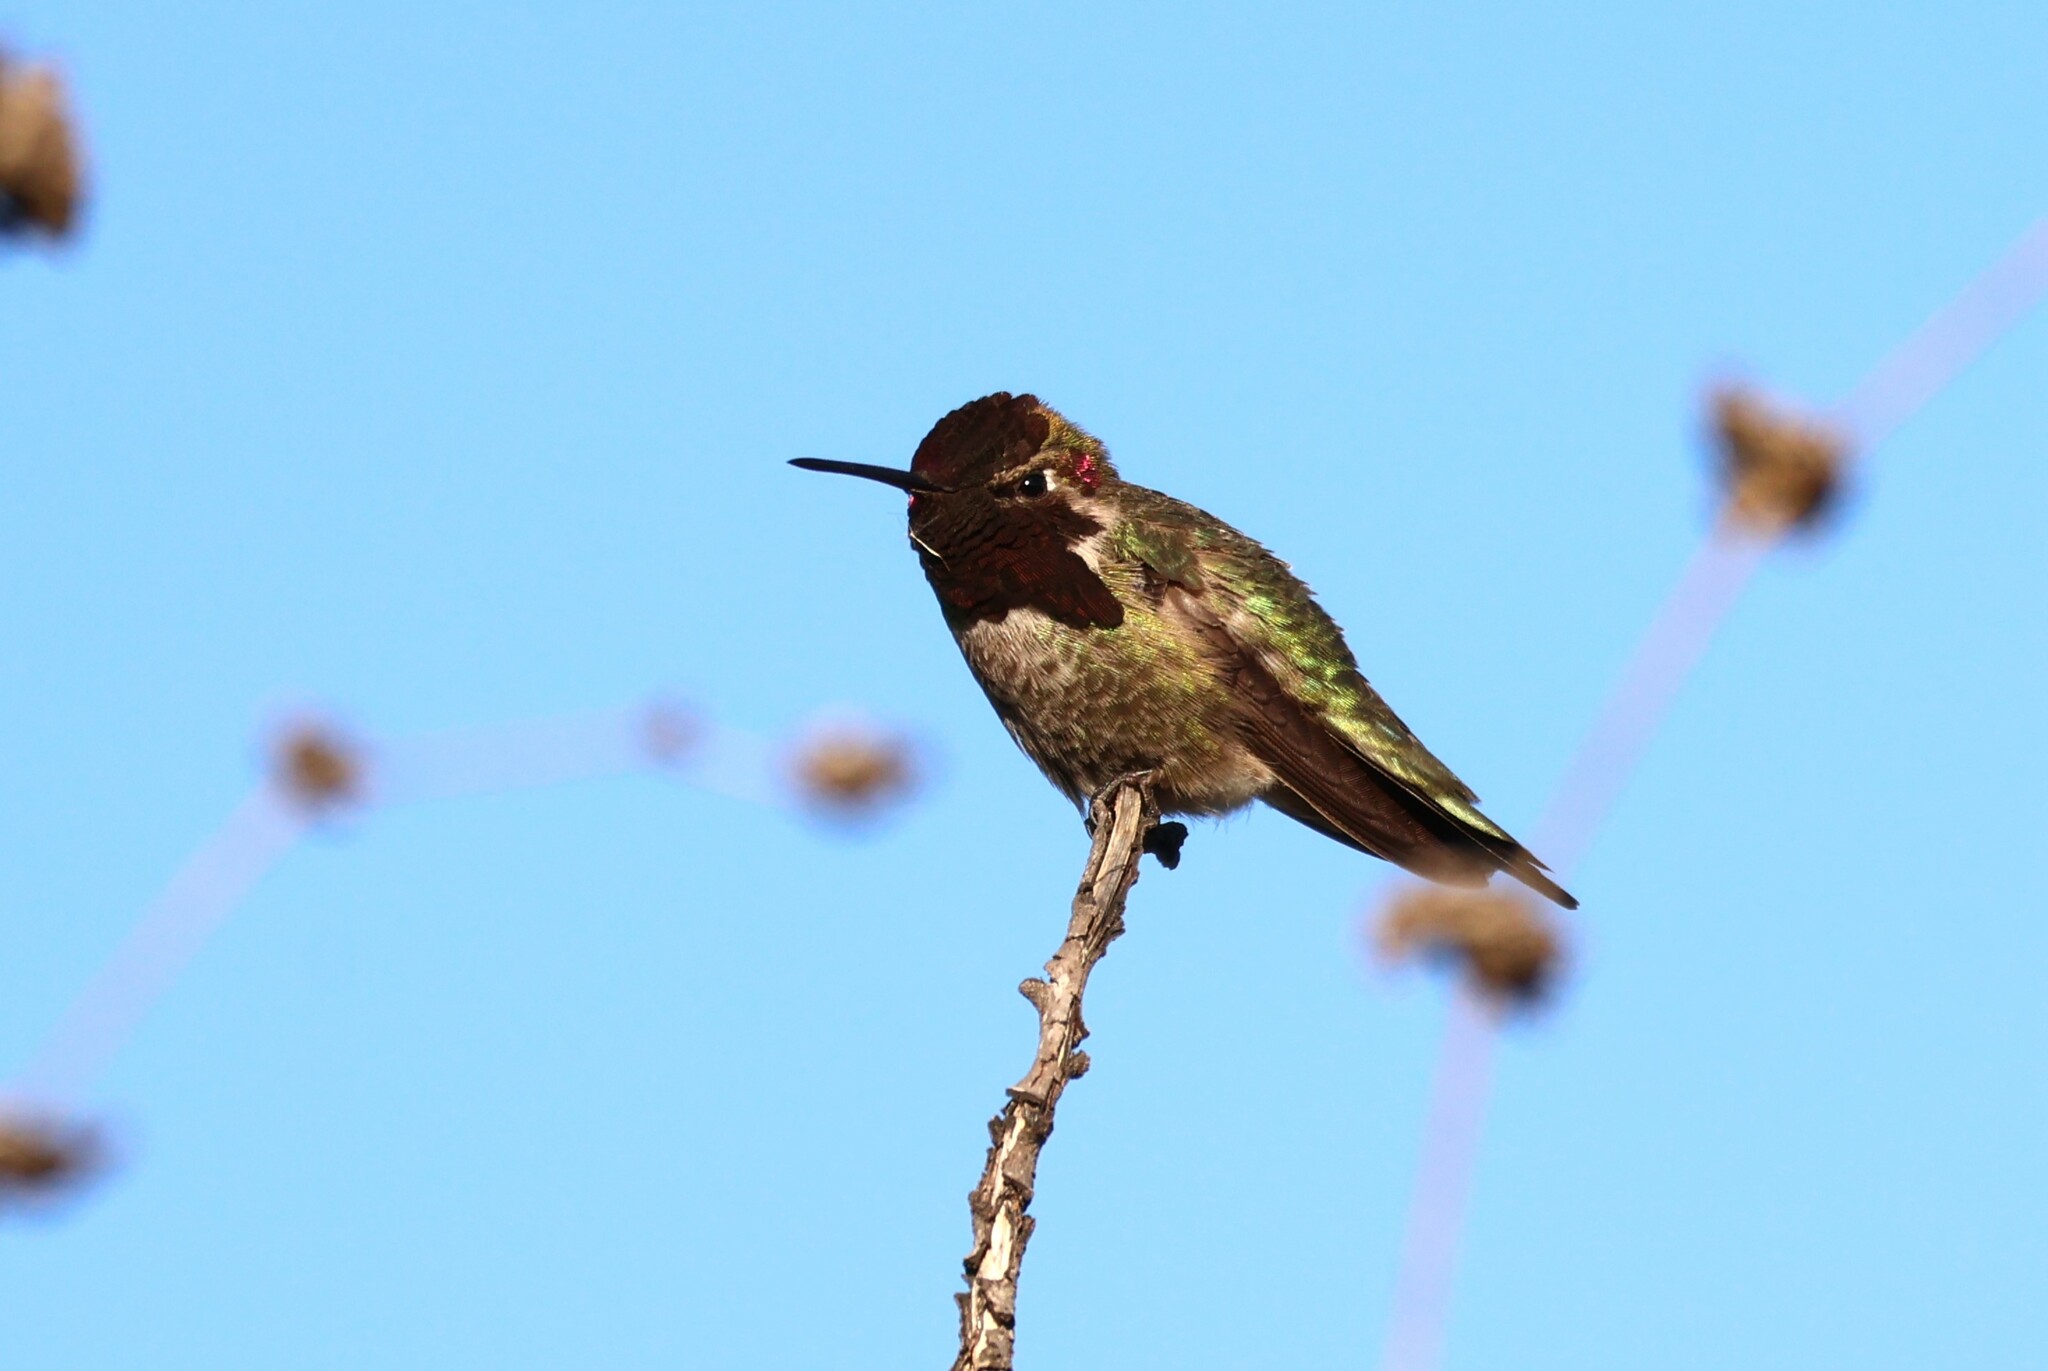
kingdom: Animalia
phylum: Chordata
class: Aves
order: Apodiformes
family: Trochilidae
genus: Calypte
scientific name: Calypte anna
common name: Anna's hummingbird
